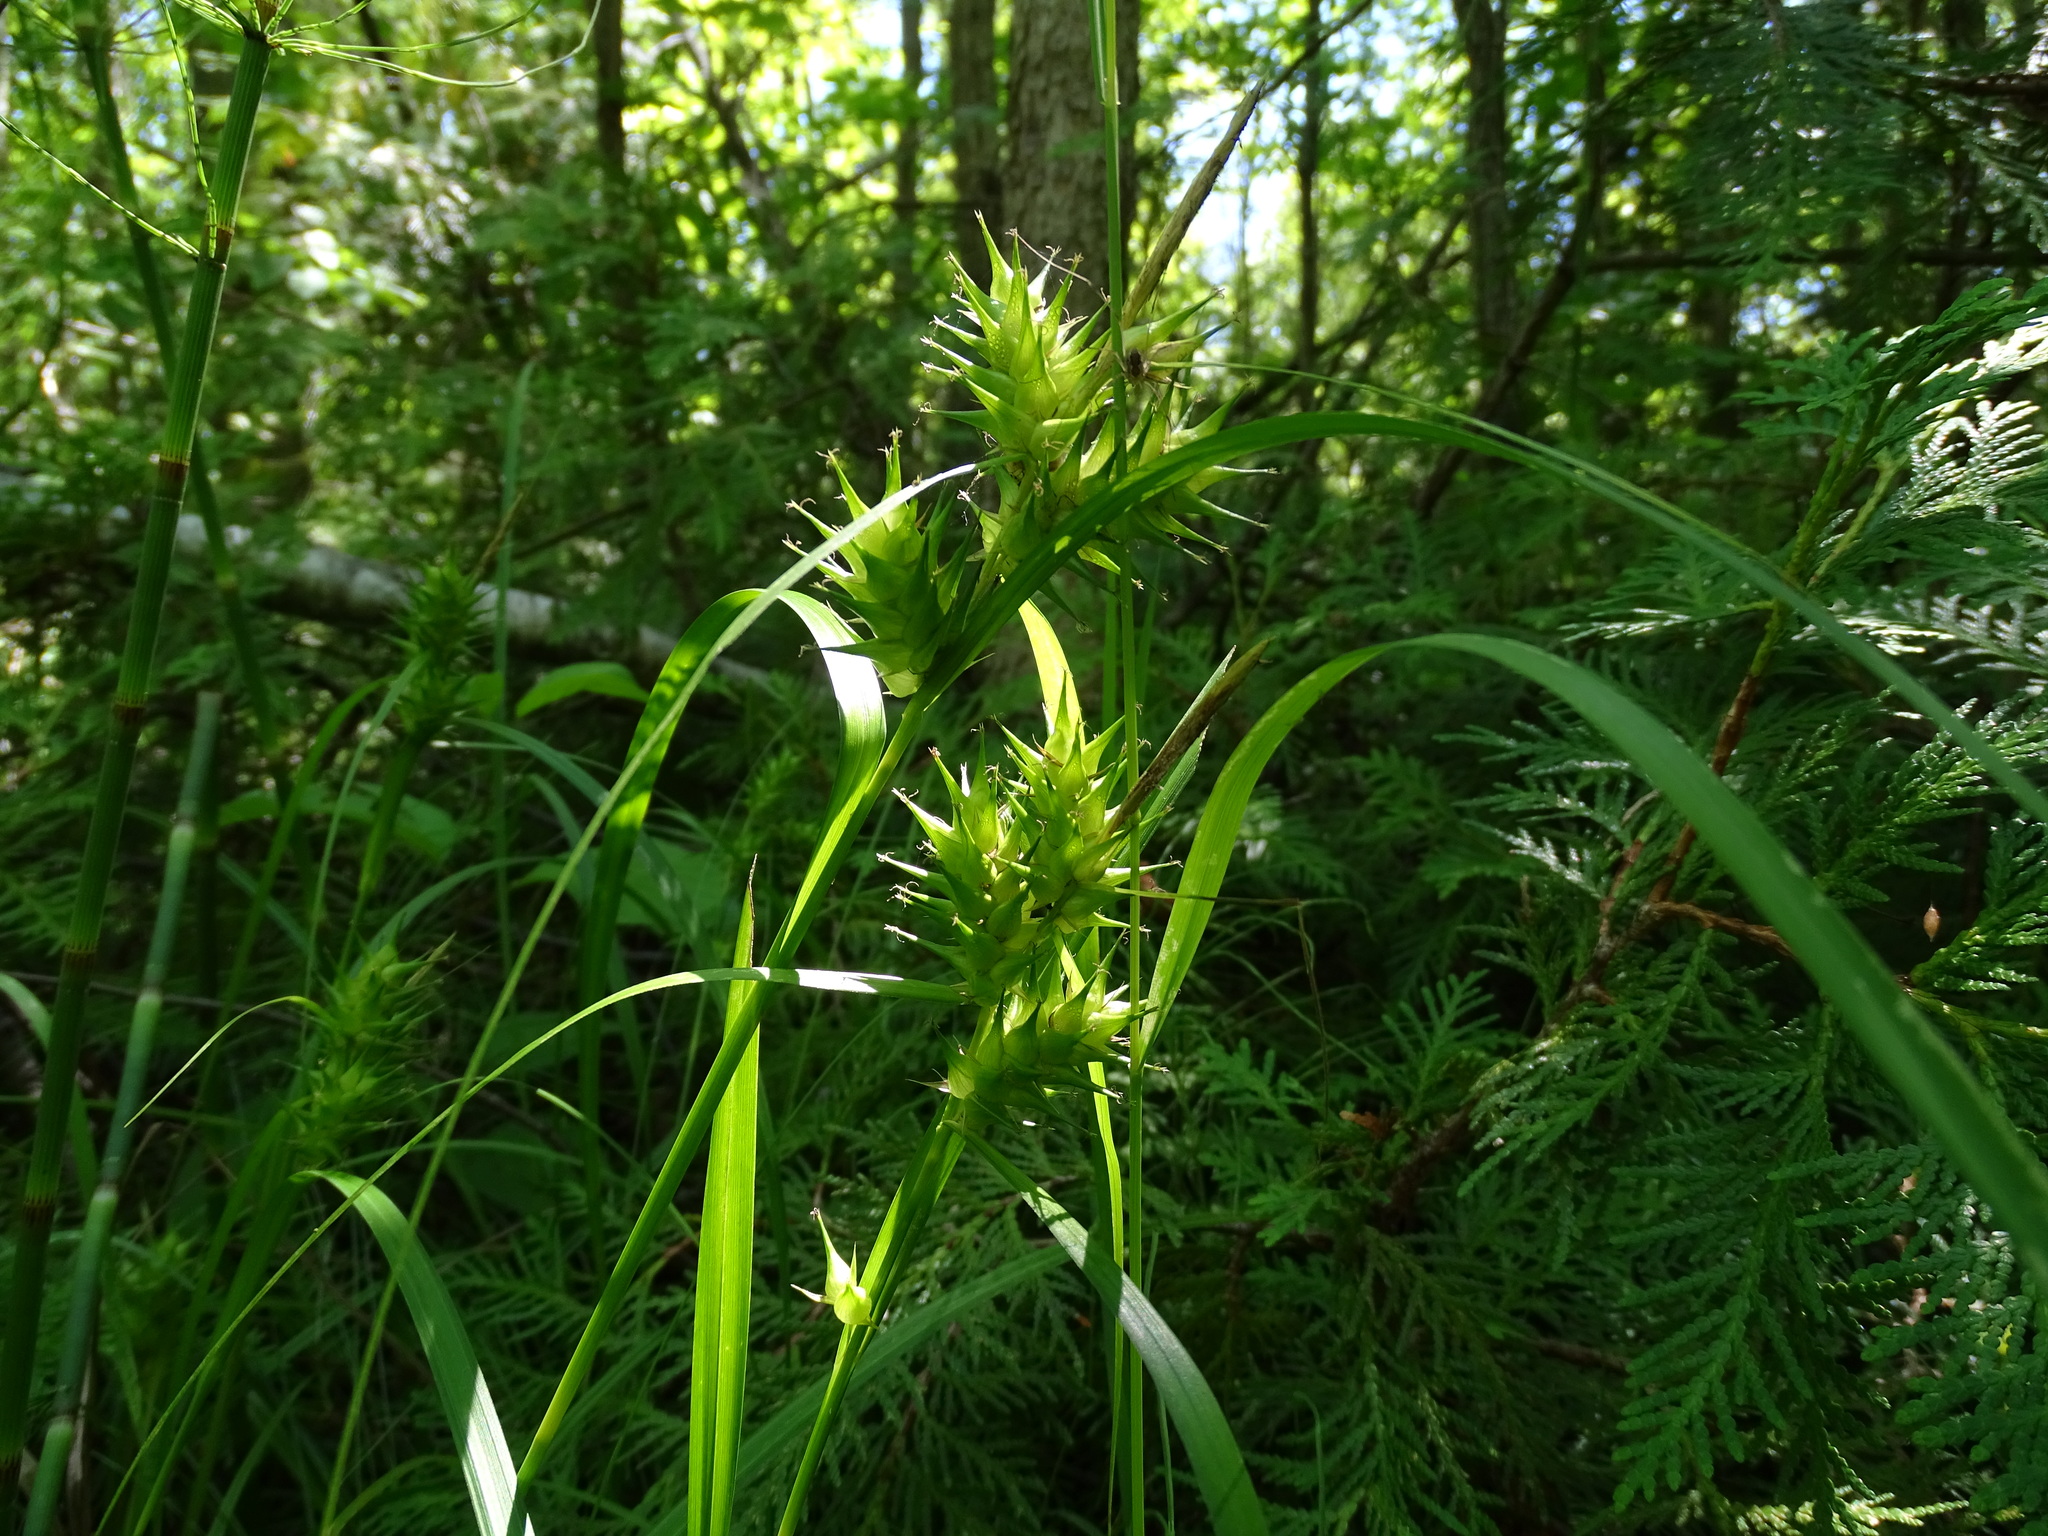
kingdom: Plantae
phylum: Tracheophyta
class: Liliopsida
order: Poales
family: Cyperaceae
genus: Carex
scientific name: Carex lupulina
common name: Hop sedge
